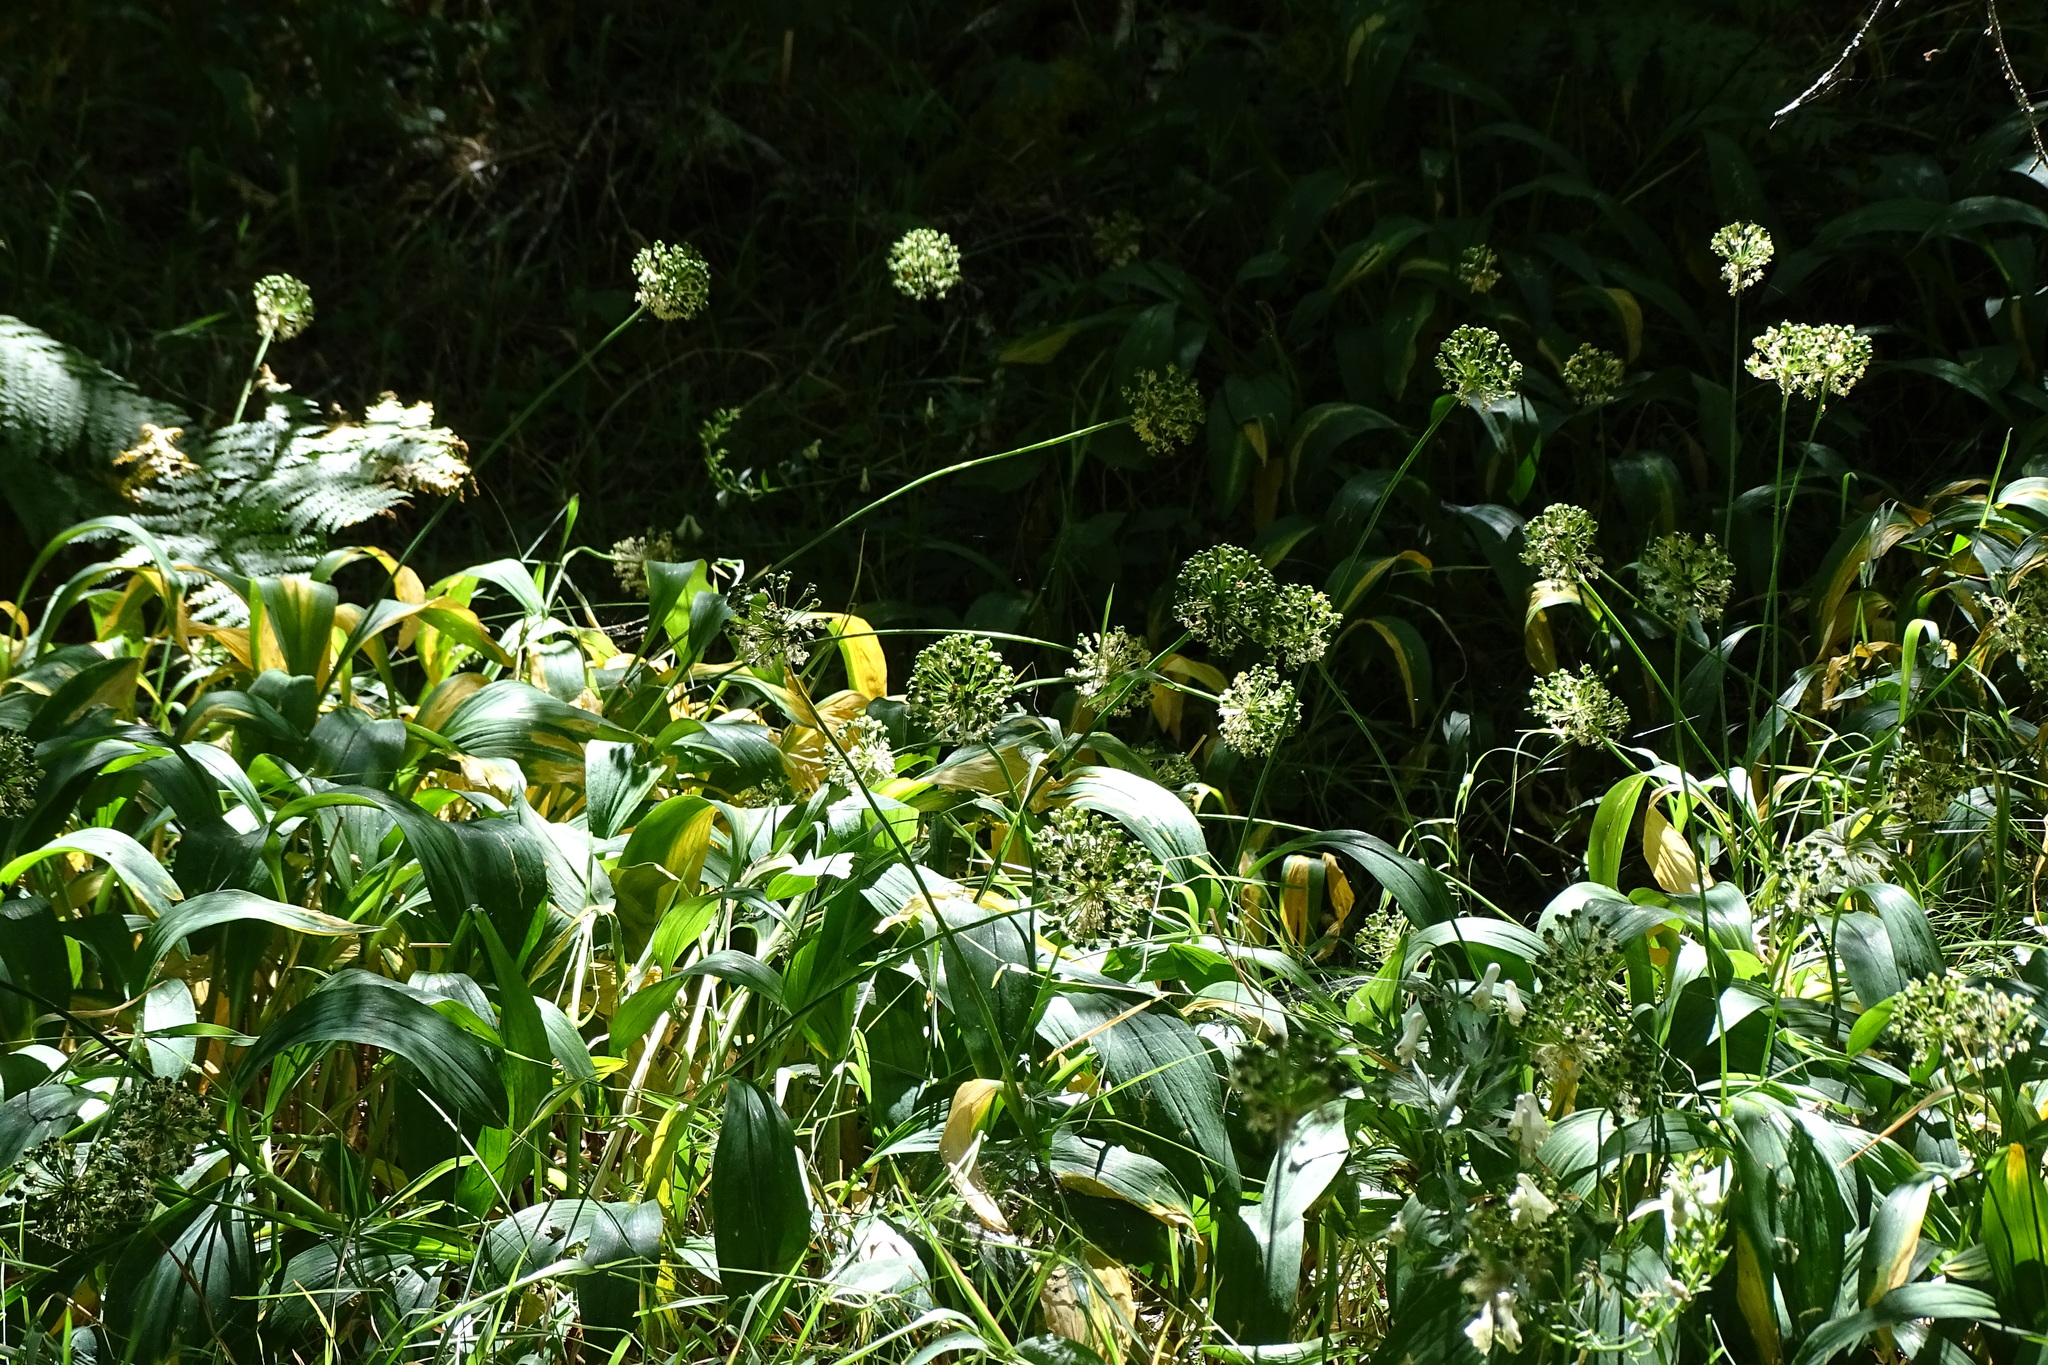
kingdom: Plantae
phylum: Tracheophyta
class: Liliopsida
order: Asparagales
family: Amaryllidaceae
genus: Allium
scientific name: Allium victorialis
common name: Alpine leek
